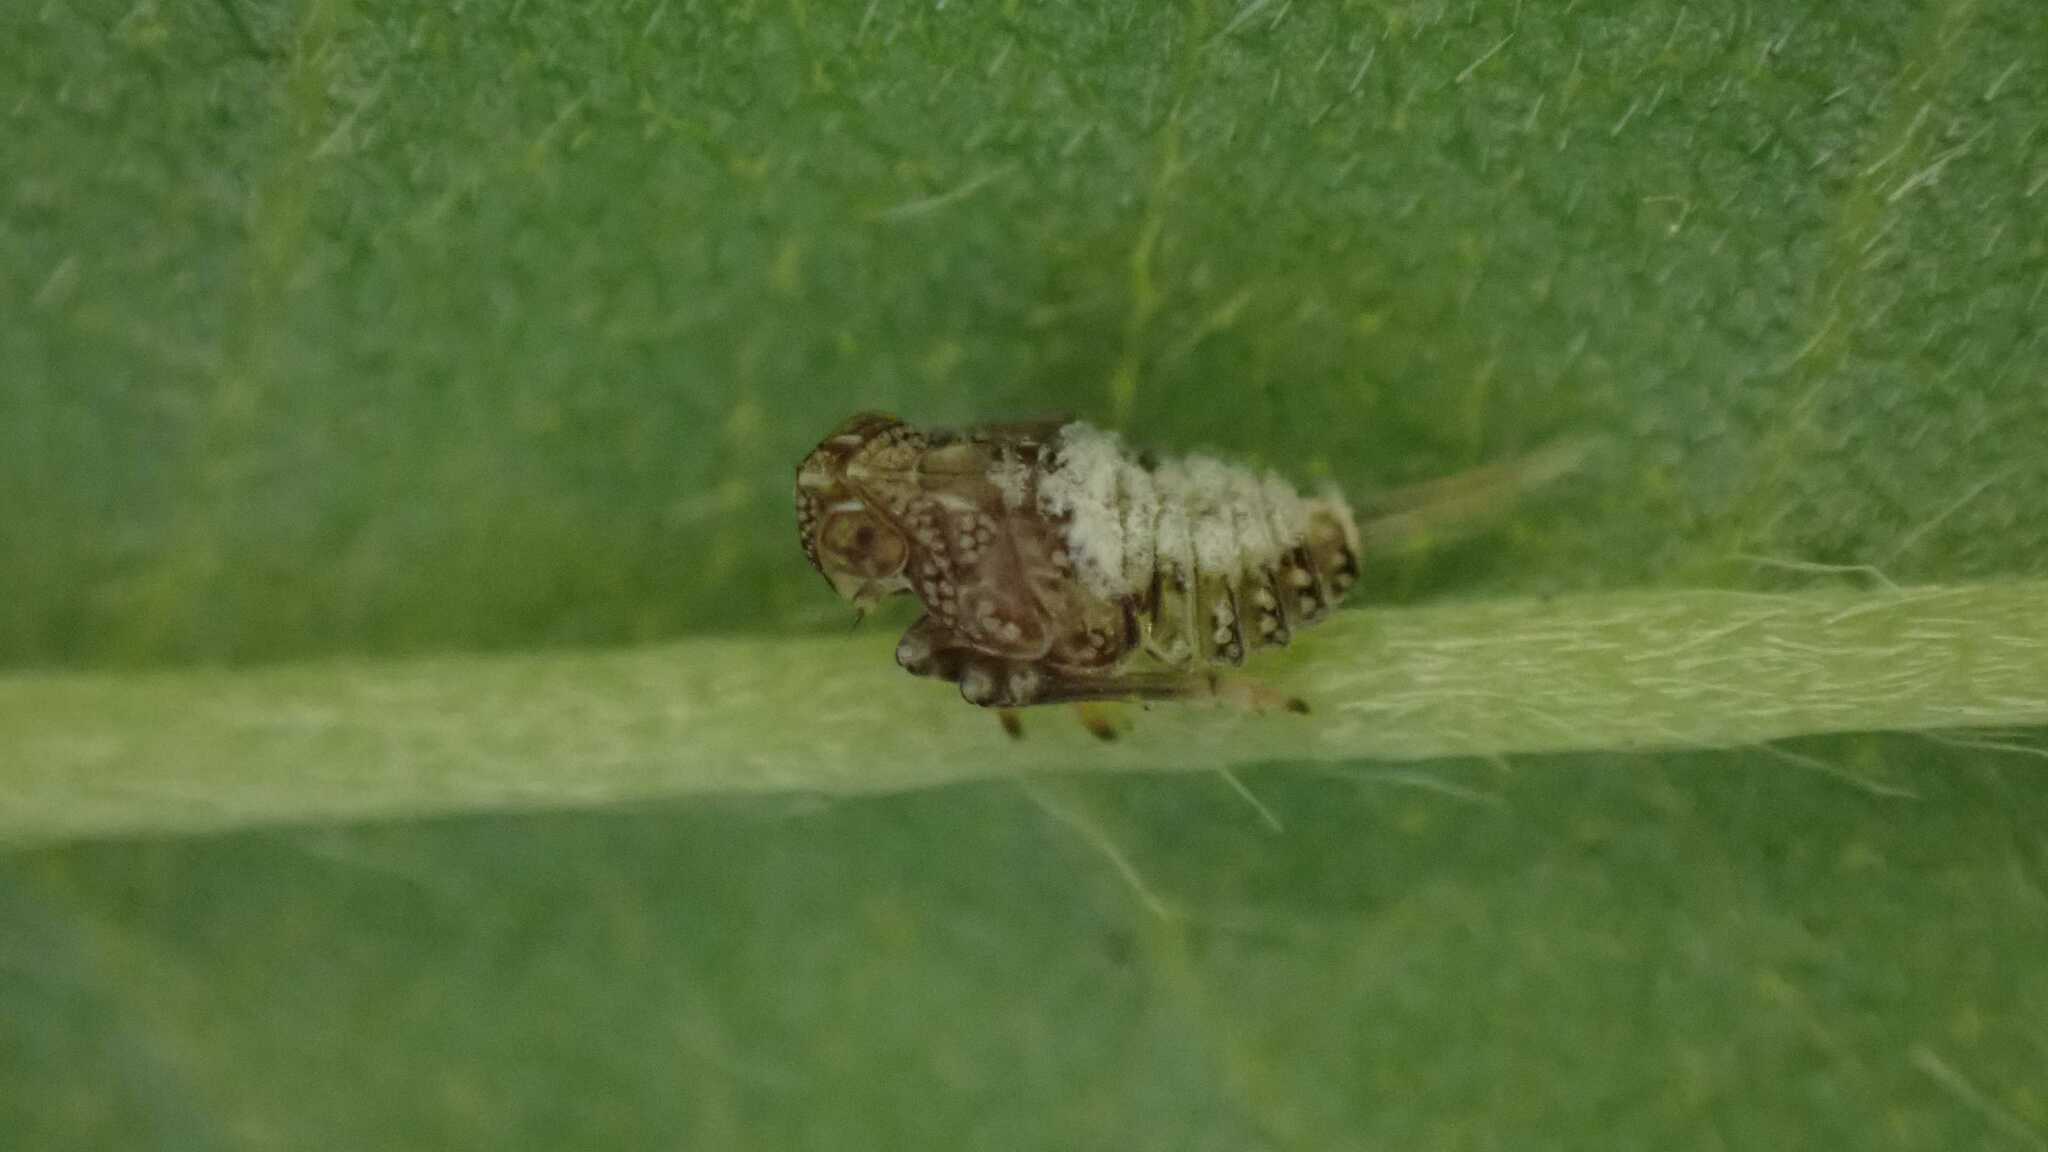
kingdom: Animalia
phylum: Arthropoda
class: Insecta
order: Hemiptera
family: Issidae
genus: Issus
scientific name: Issus coleoptratus
